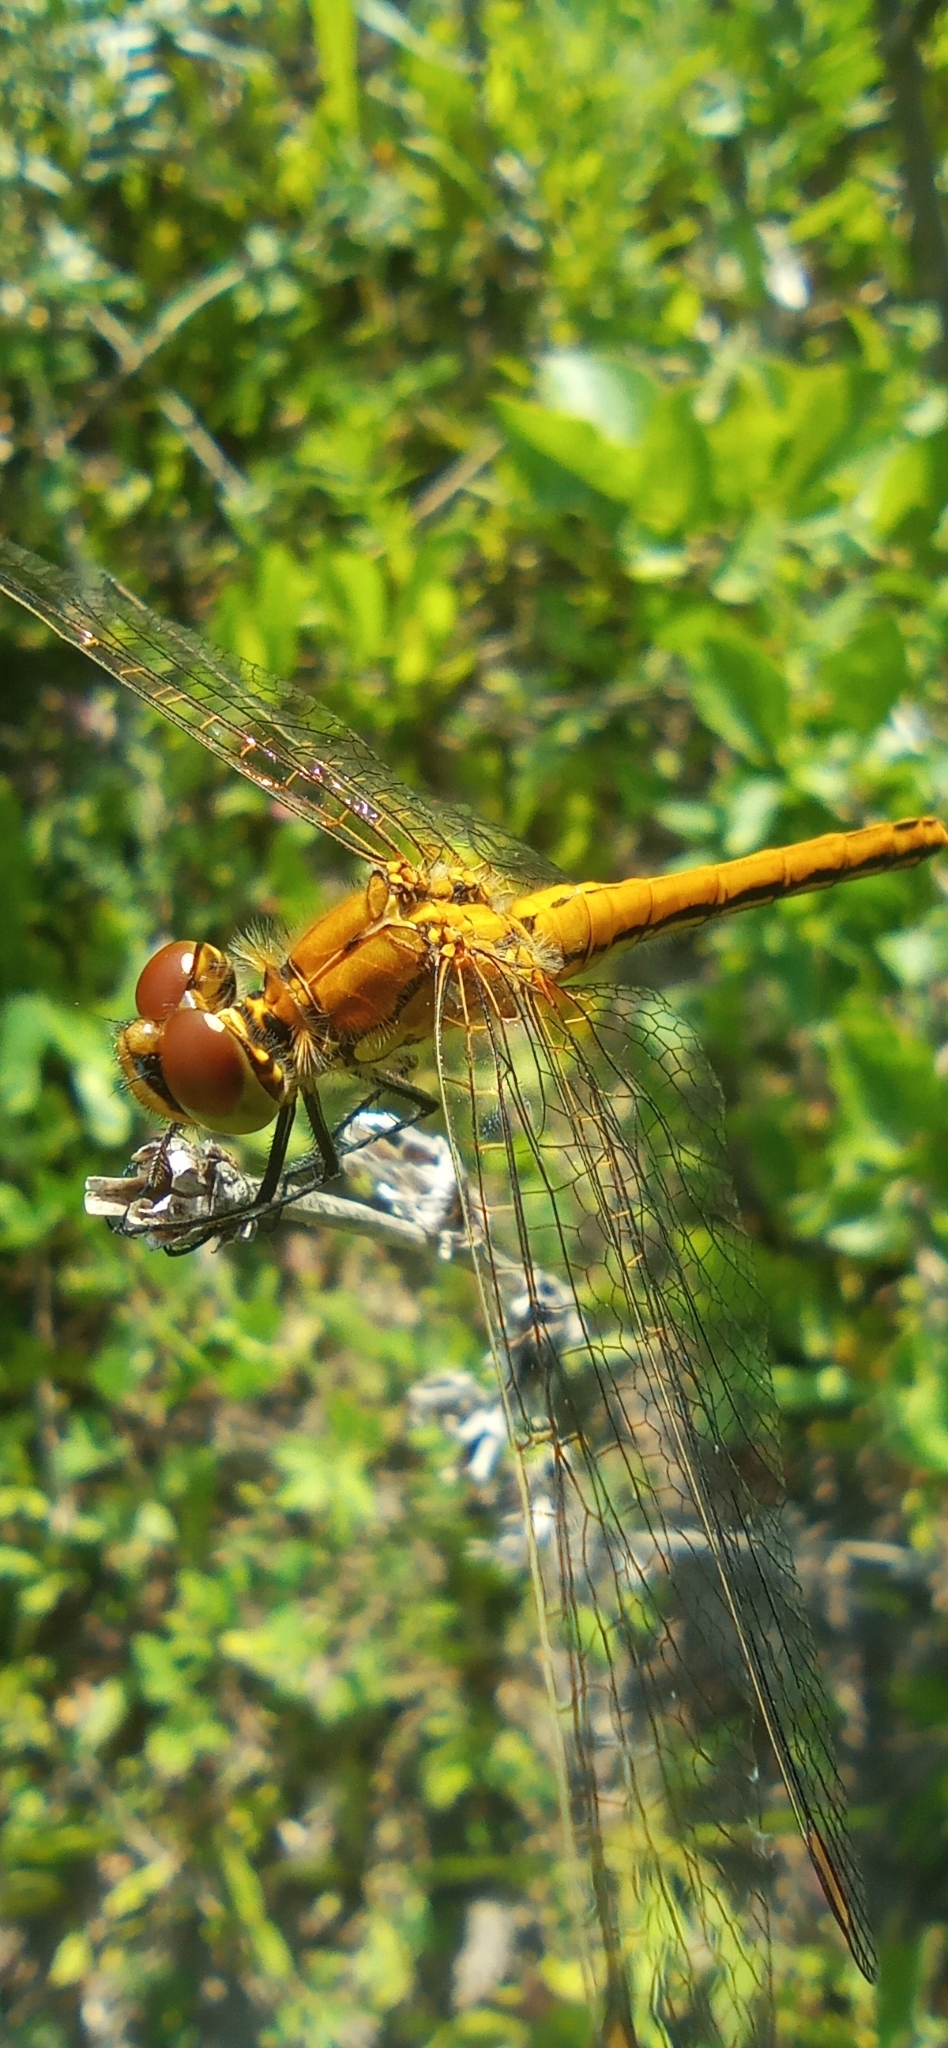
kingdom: Animalia
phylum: Arthropoda
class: Insecta
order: Odonata
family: Libellulidae
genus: Sympetrum
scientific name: Sympetrum flaveolum
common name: Yellow-winged darter
